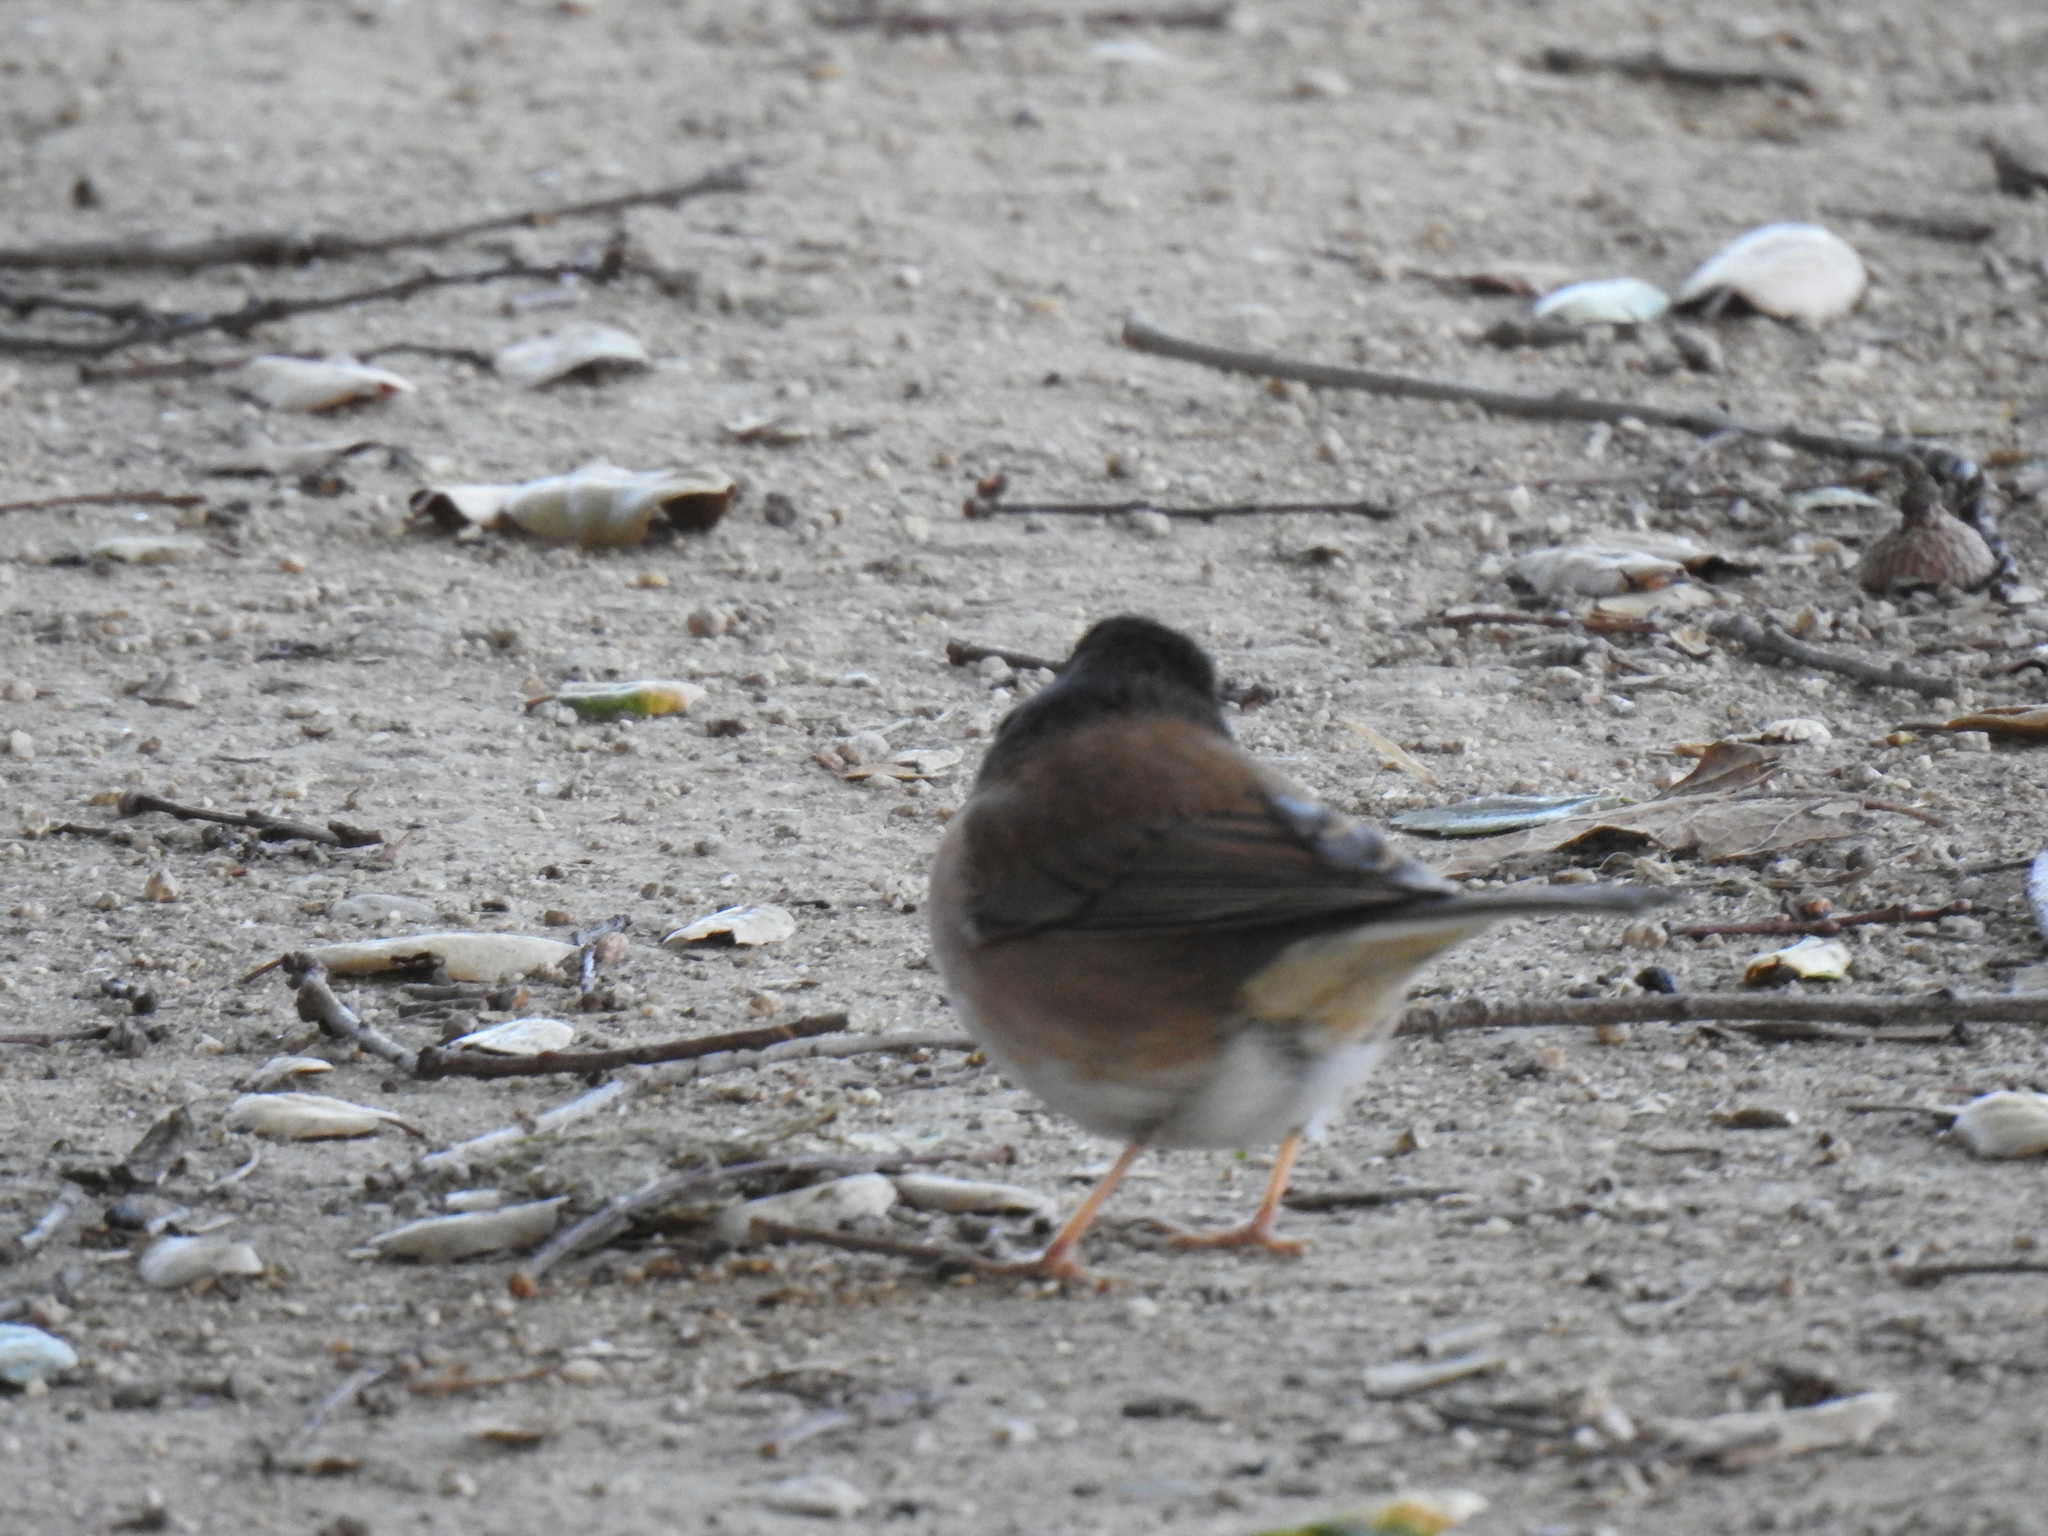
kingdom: Animalia
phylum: Chordata
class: Aves
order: Passeriformes
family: Passerellidae
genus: Junco
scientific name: Junco hyemalis
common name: Dark-eyed junco
